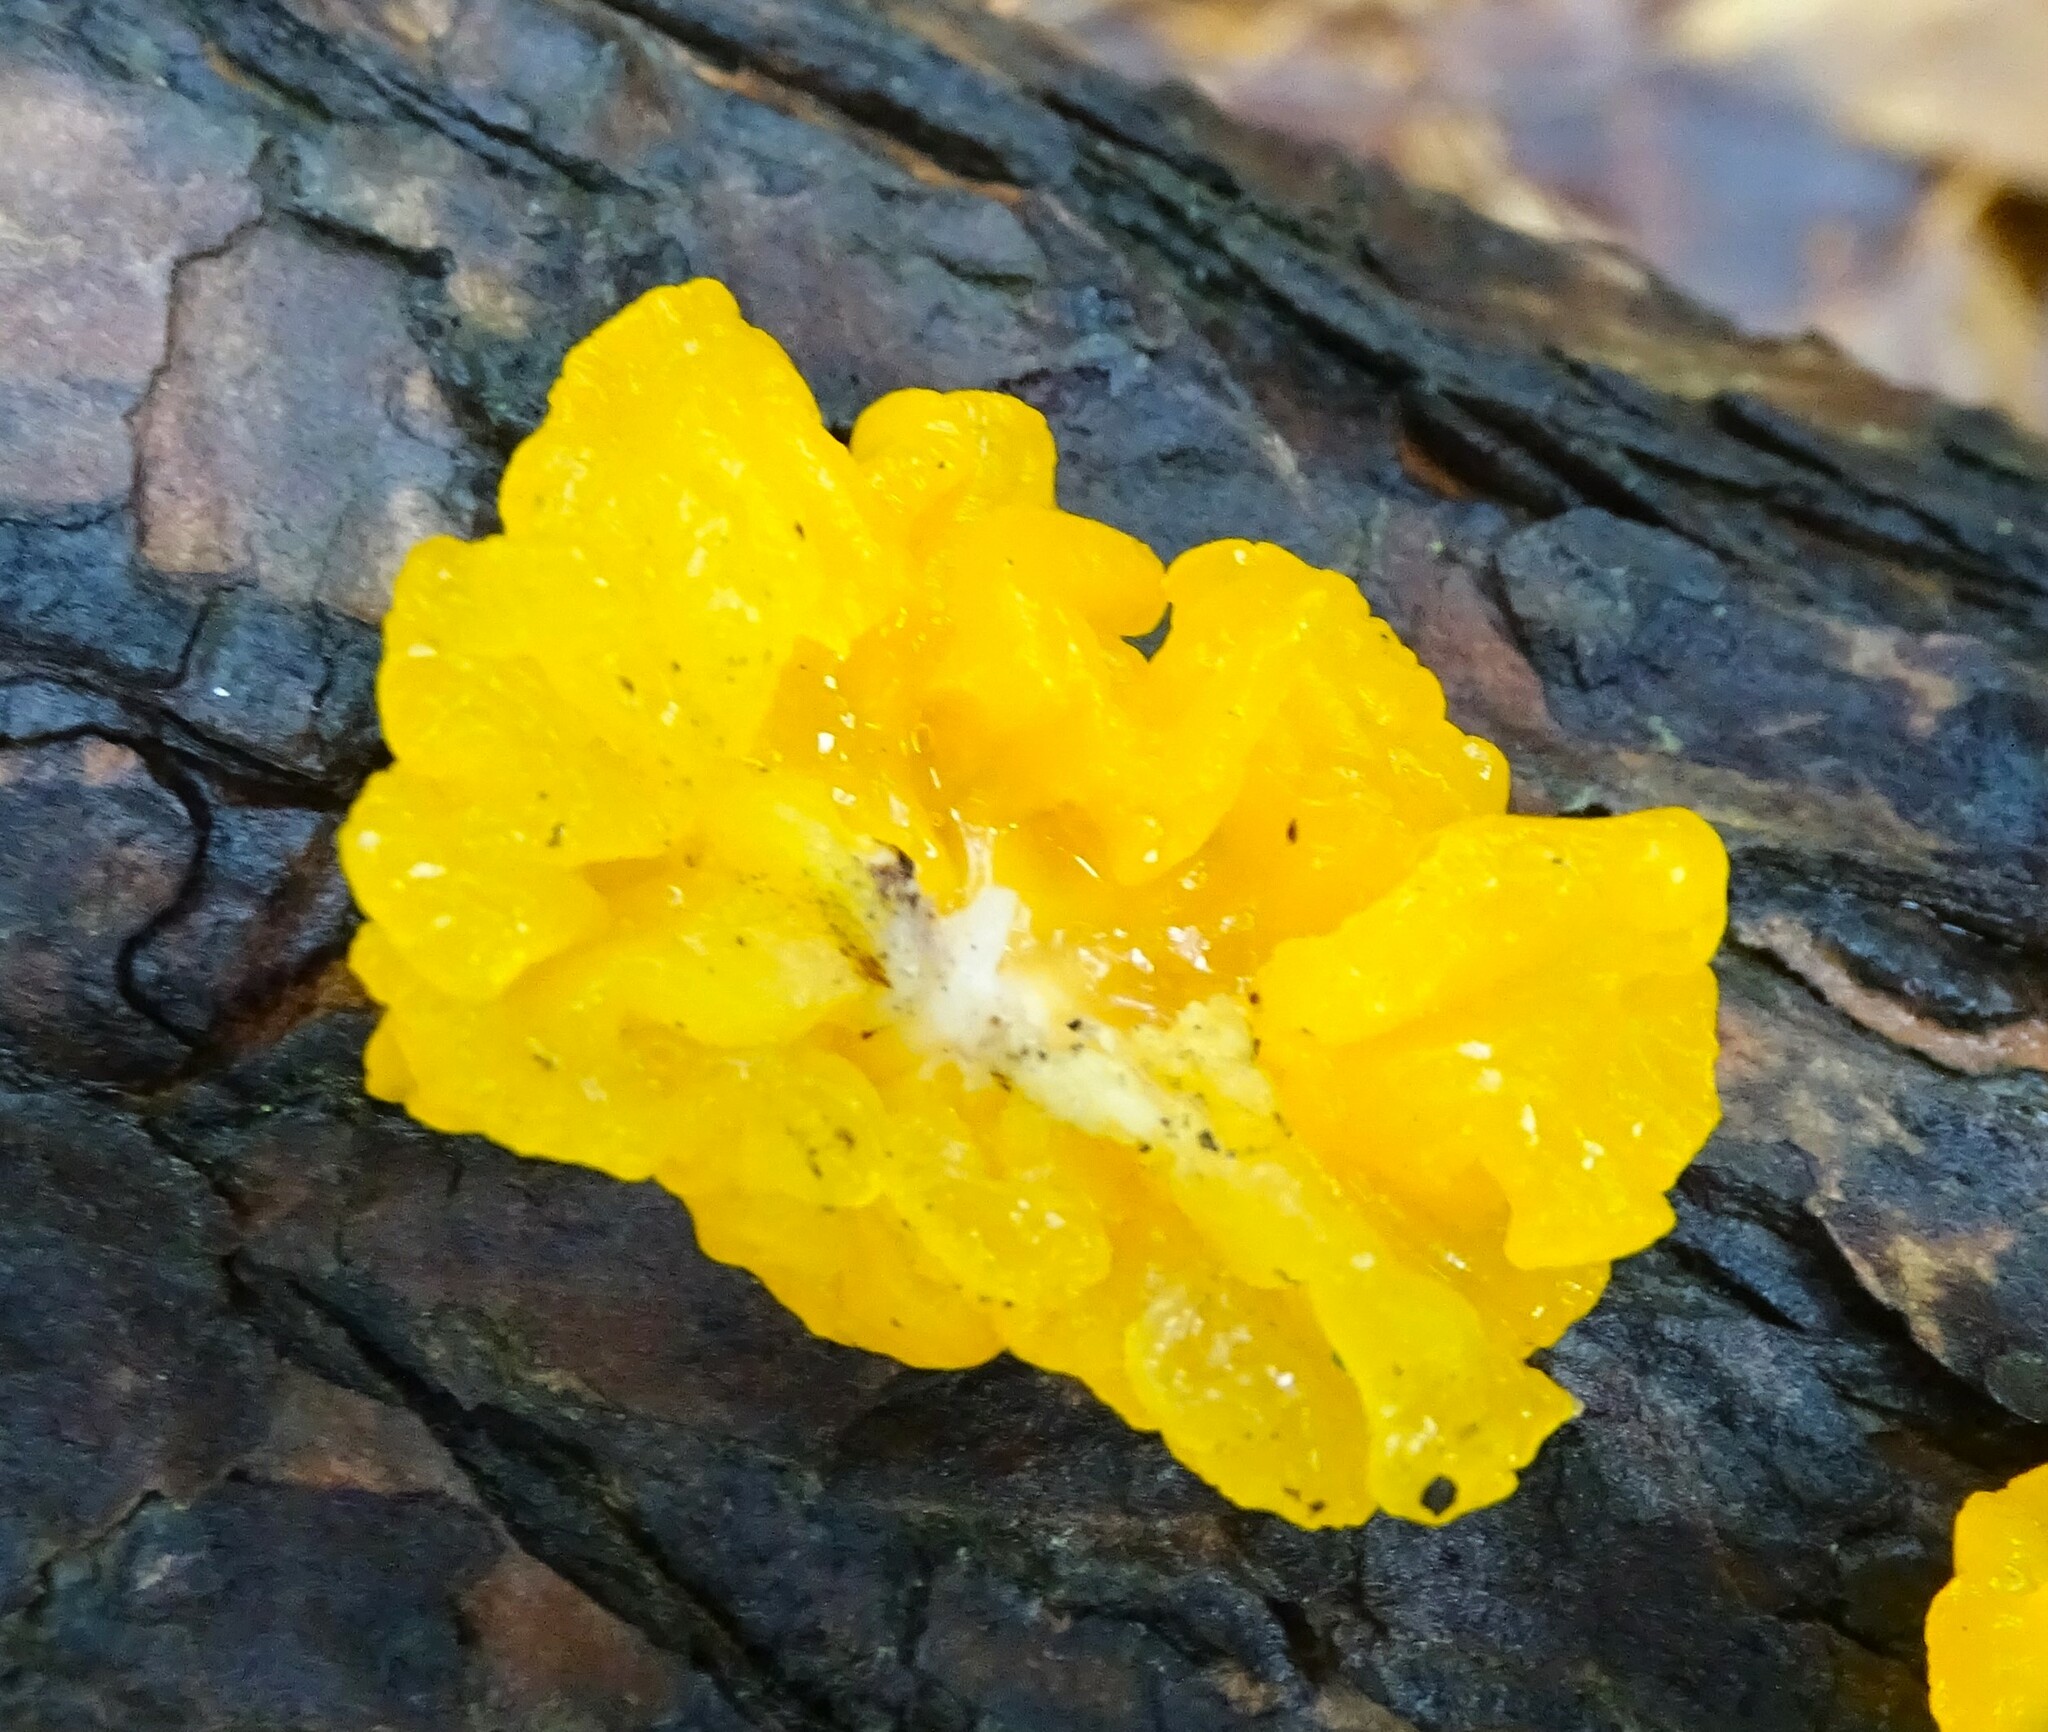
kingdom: Fungi
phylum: Basidiomycota
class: Dacrymycetes
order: Dacrymycetales
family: Dacrymycetaceae
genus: Dacrymyces
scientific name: Dacrymyces chrysospermus
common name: Orange jelly spot
